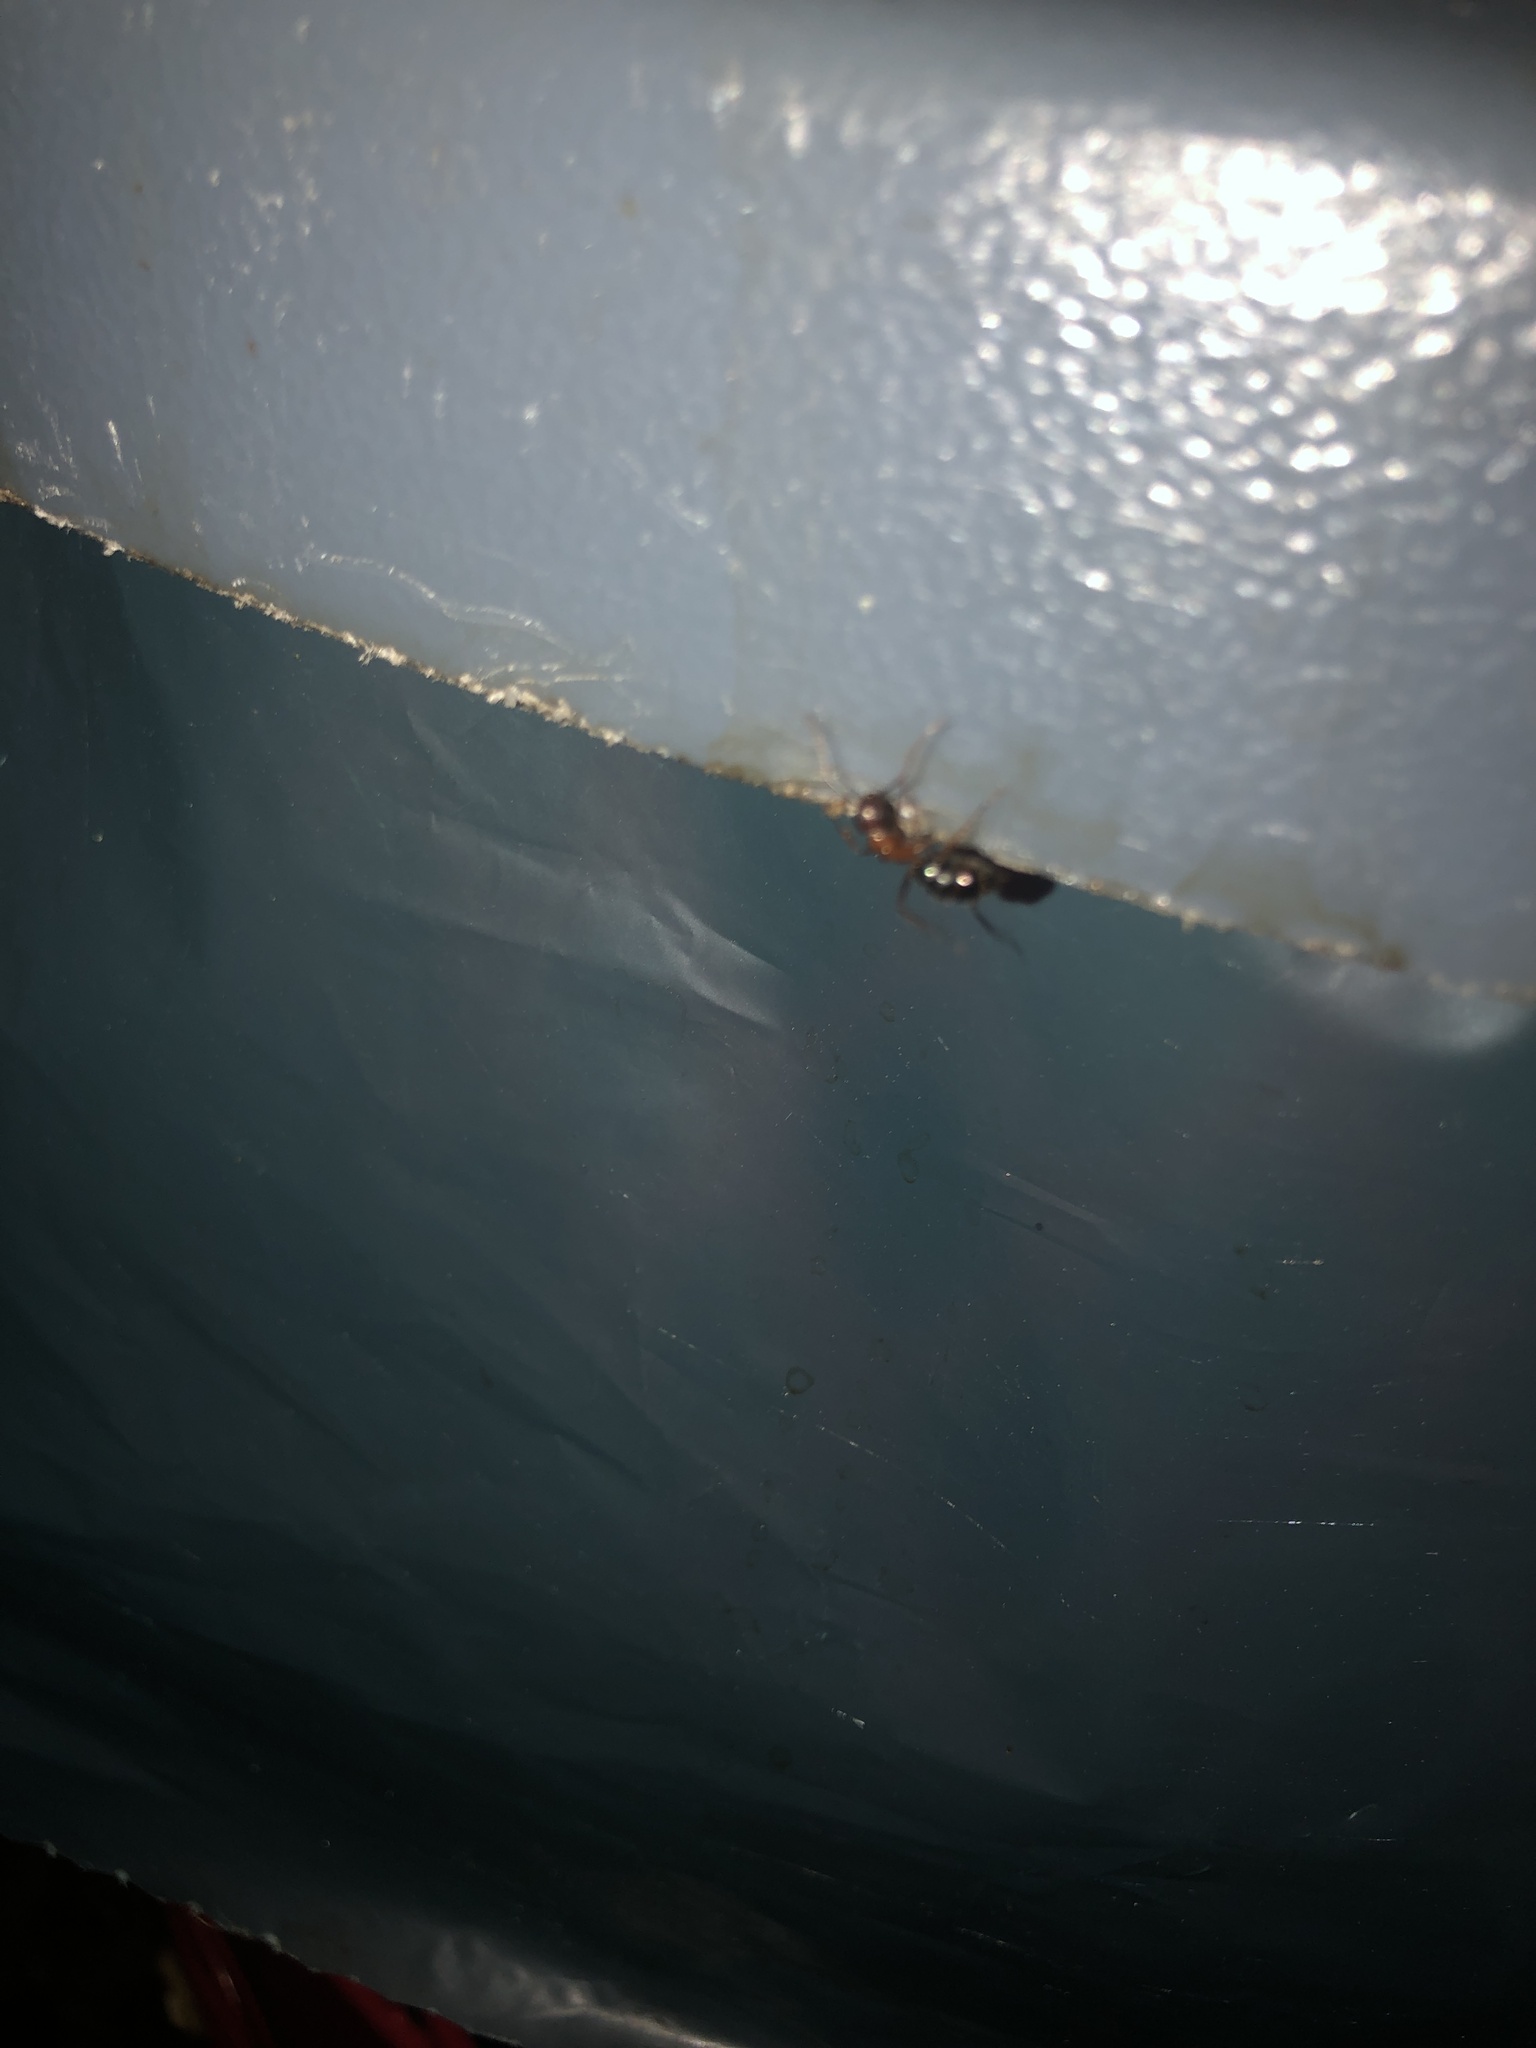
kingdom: Animalia
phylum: Arthropoda
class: Insecta
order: Hymenoptera
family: Formicidae
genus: Camponotus
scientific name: Camponotus floridanus
